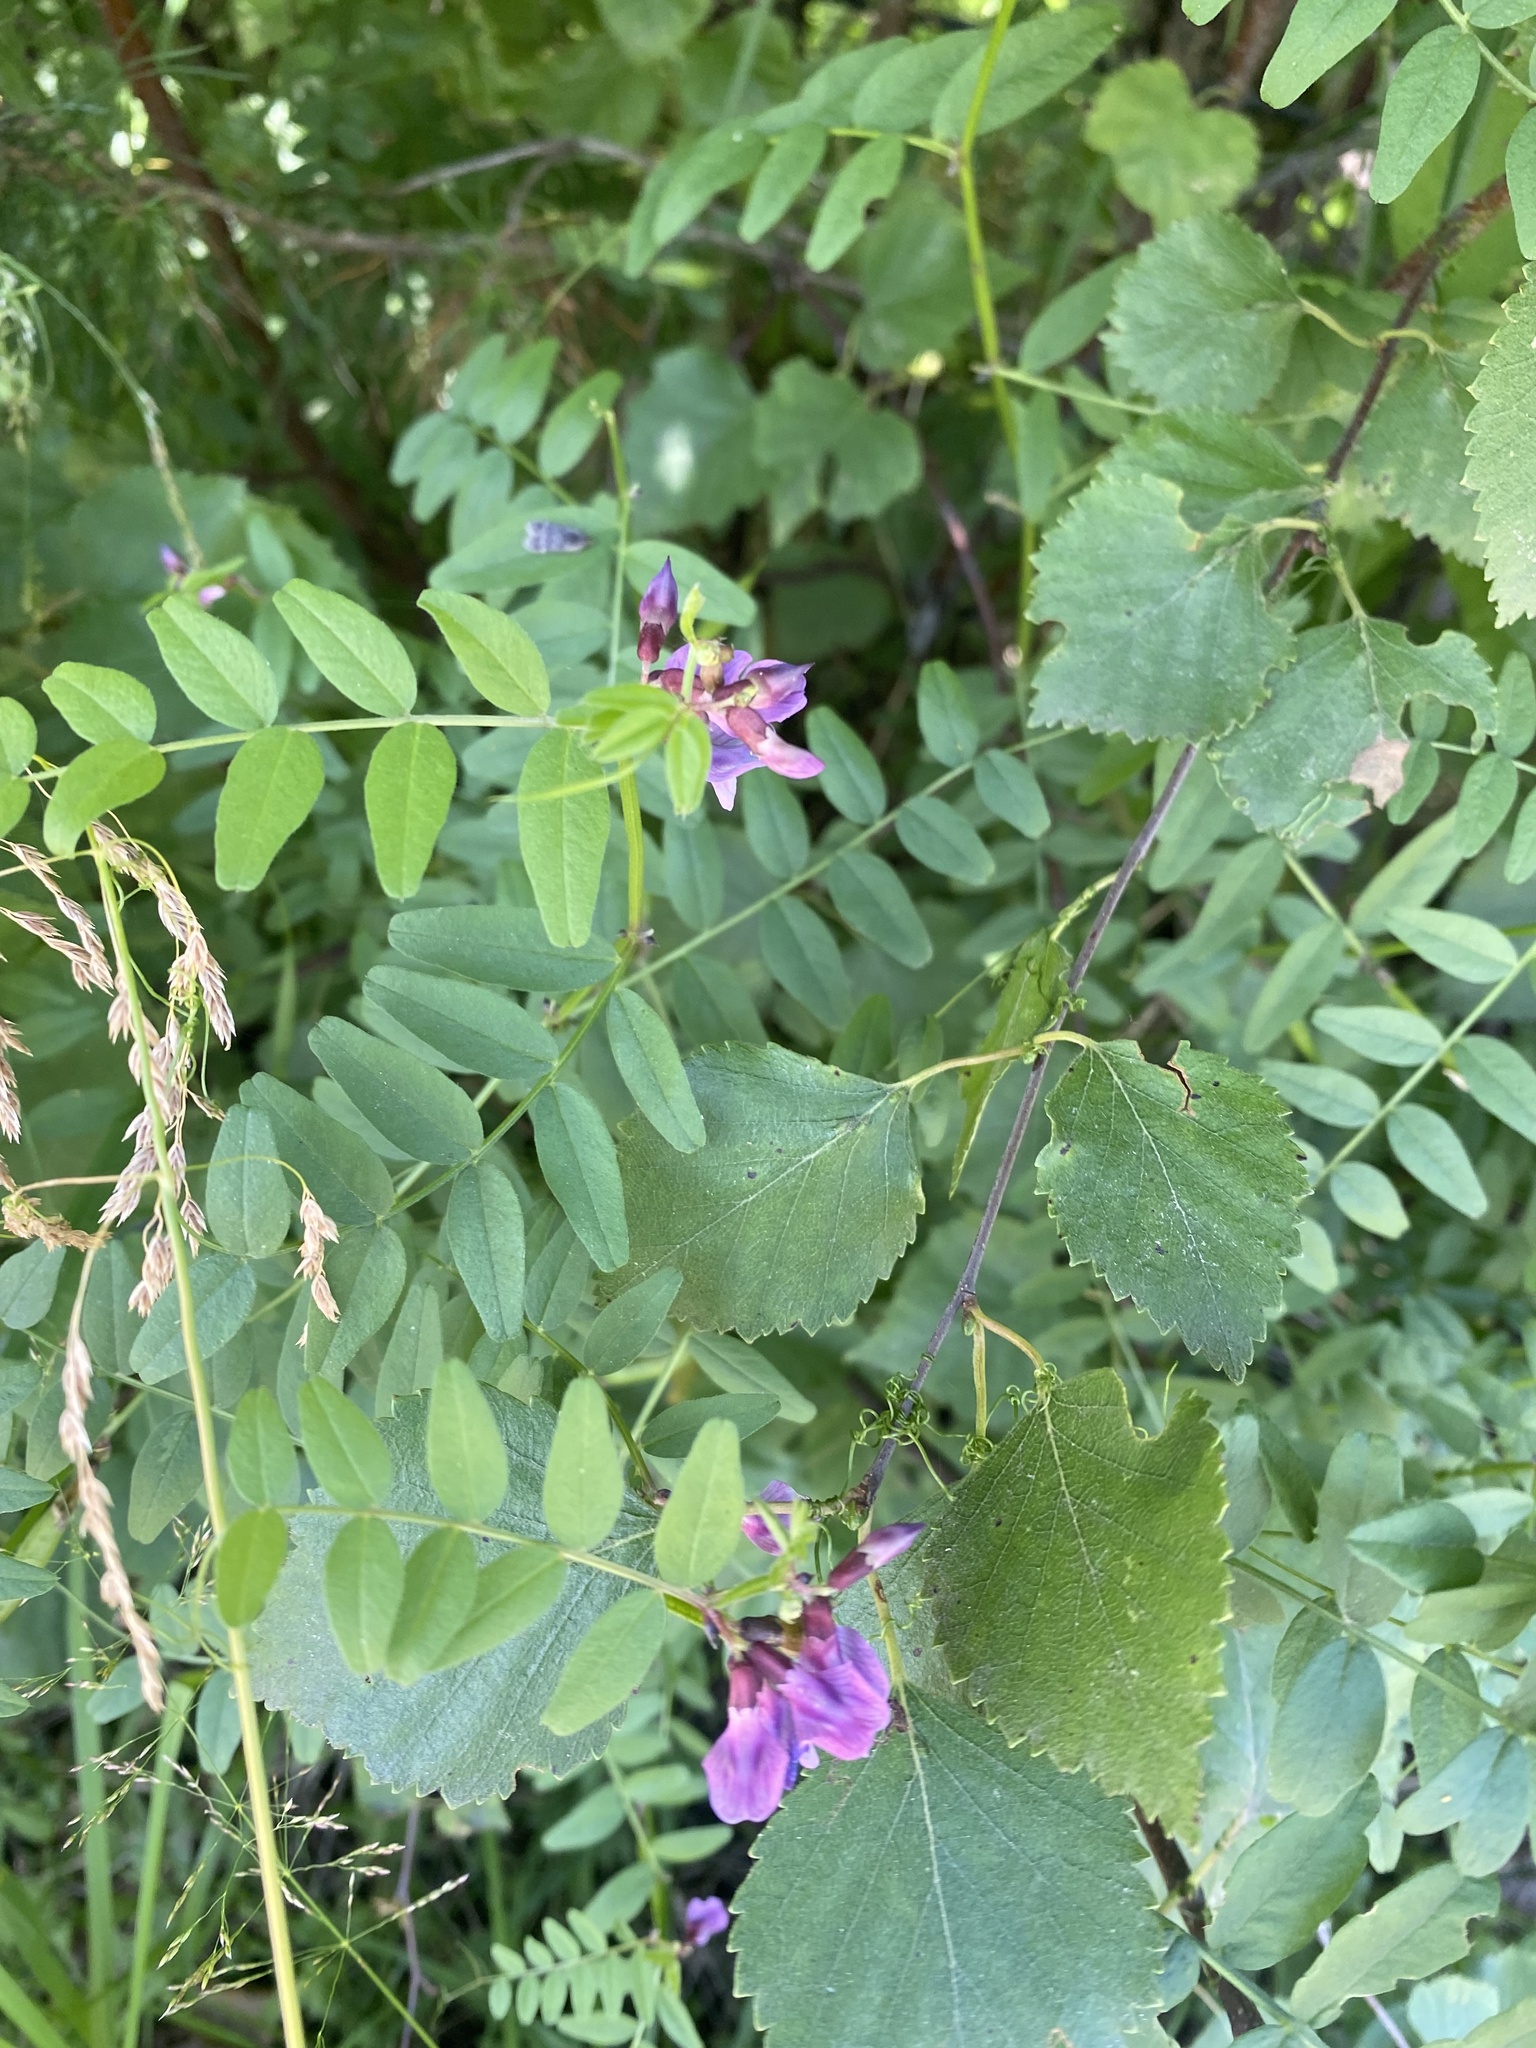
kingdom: Plantae
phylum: Tracheophyta
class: Magnoliopsida
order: Fabales
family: Fabaceae
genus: Vicia
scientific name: Vicia sepium
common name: Bush vetch
